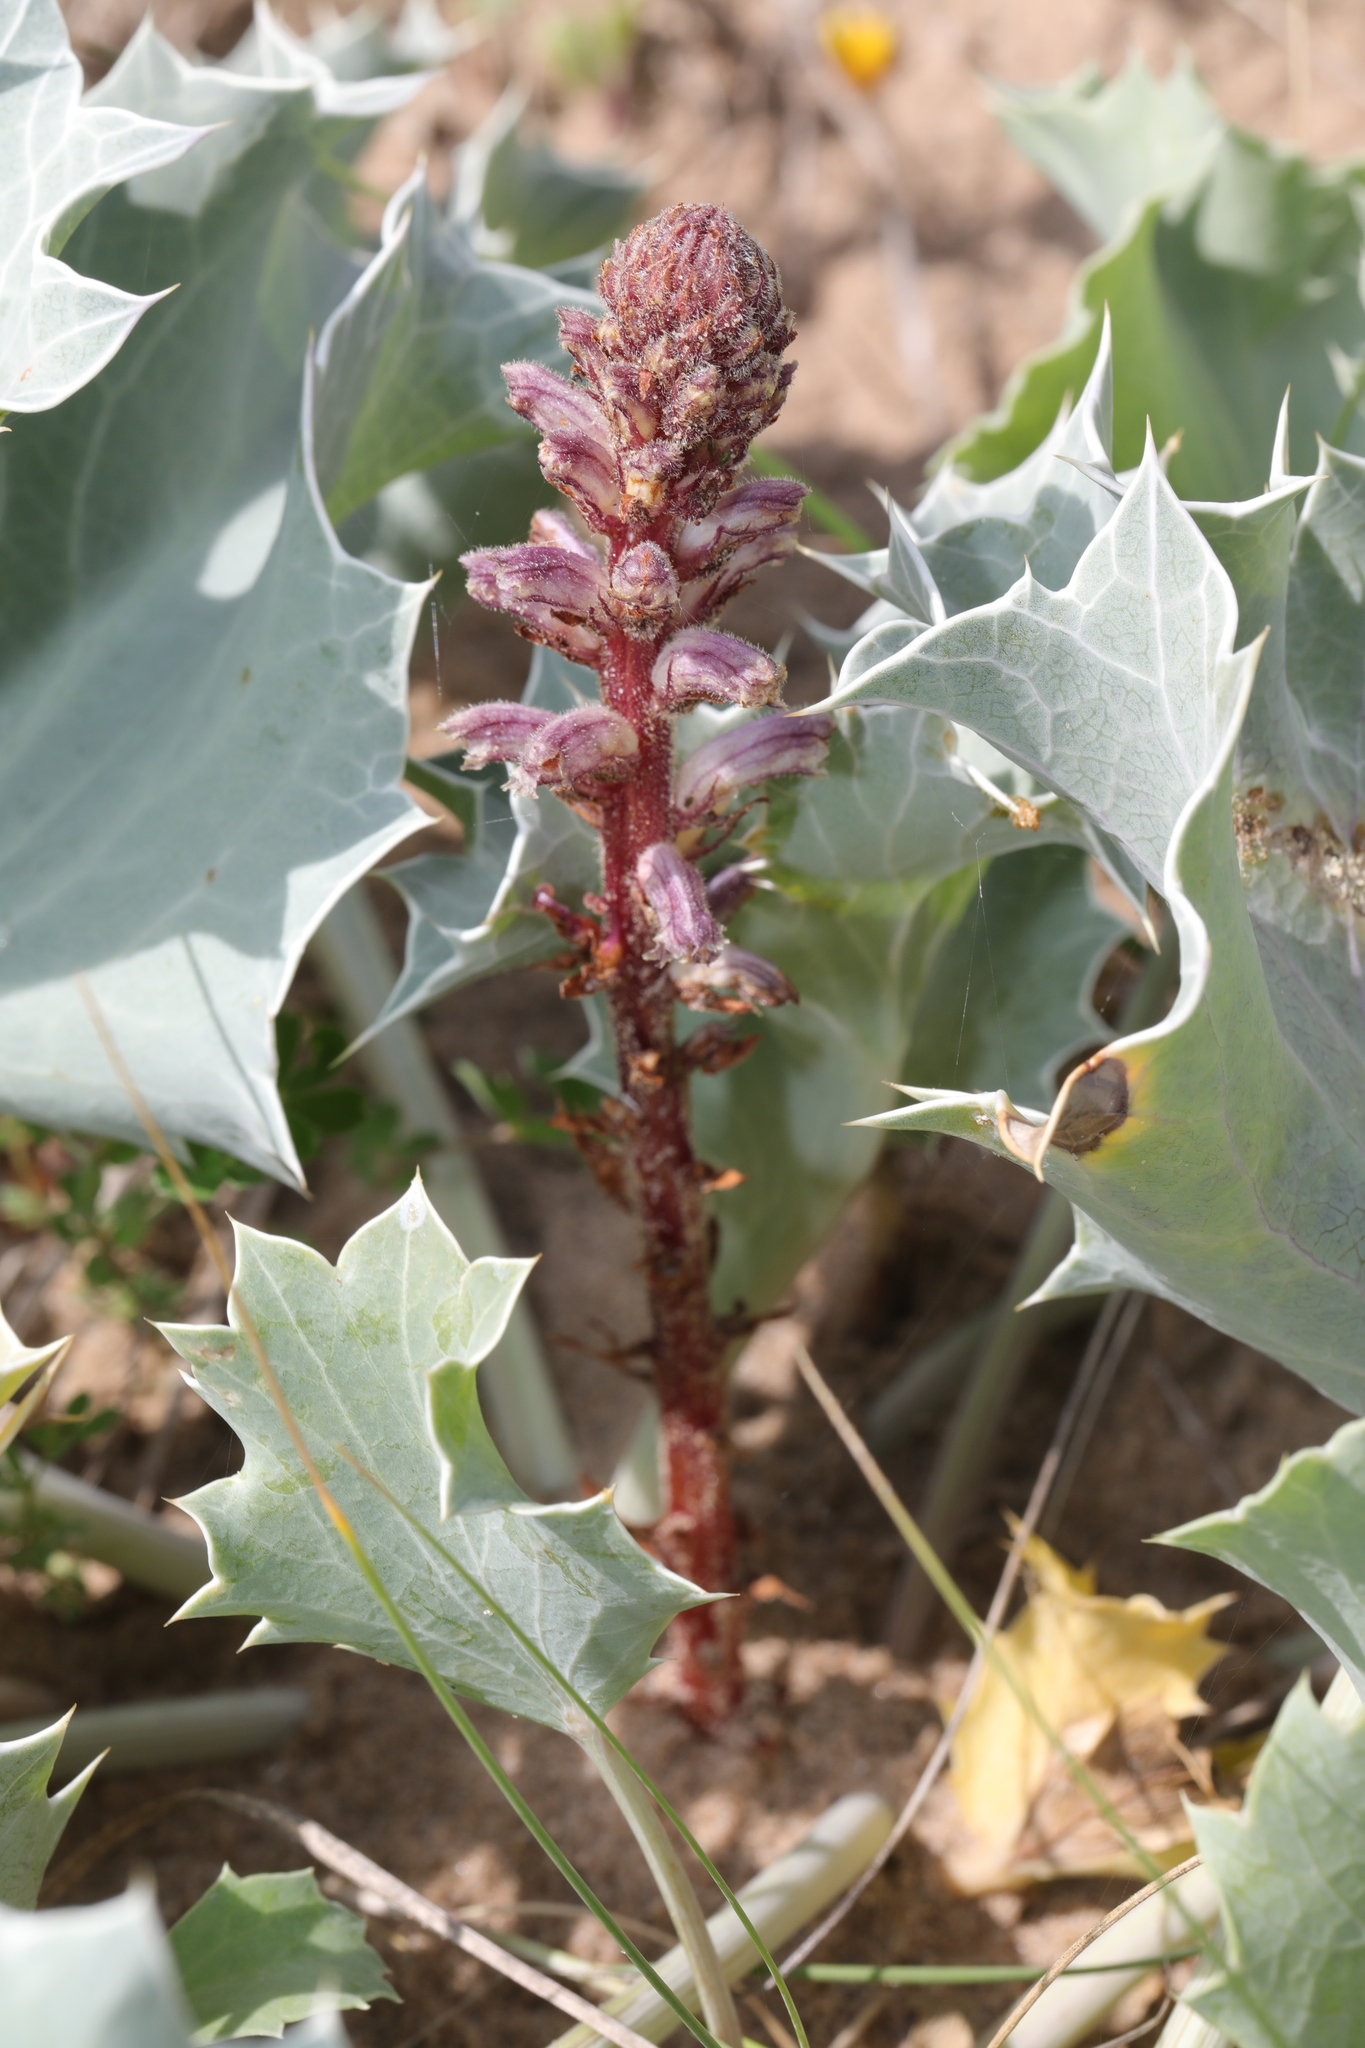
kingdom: Plantae
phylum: Tracheophyta
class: Magnoliopsida
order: Lamiales
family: Orobanchaceae
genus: Orobanche
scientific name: Orobanche minor
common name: Common broomrape
